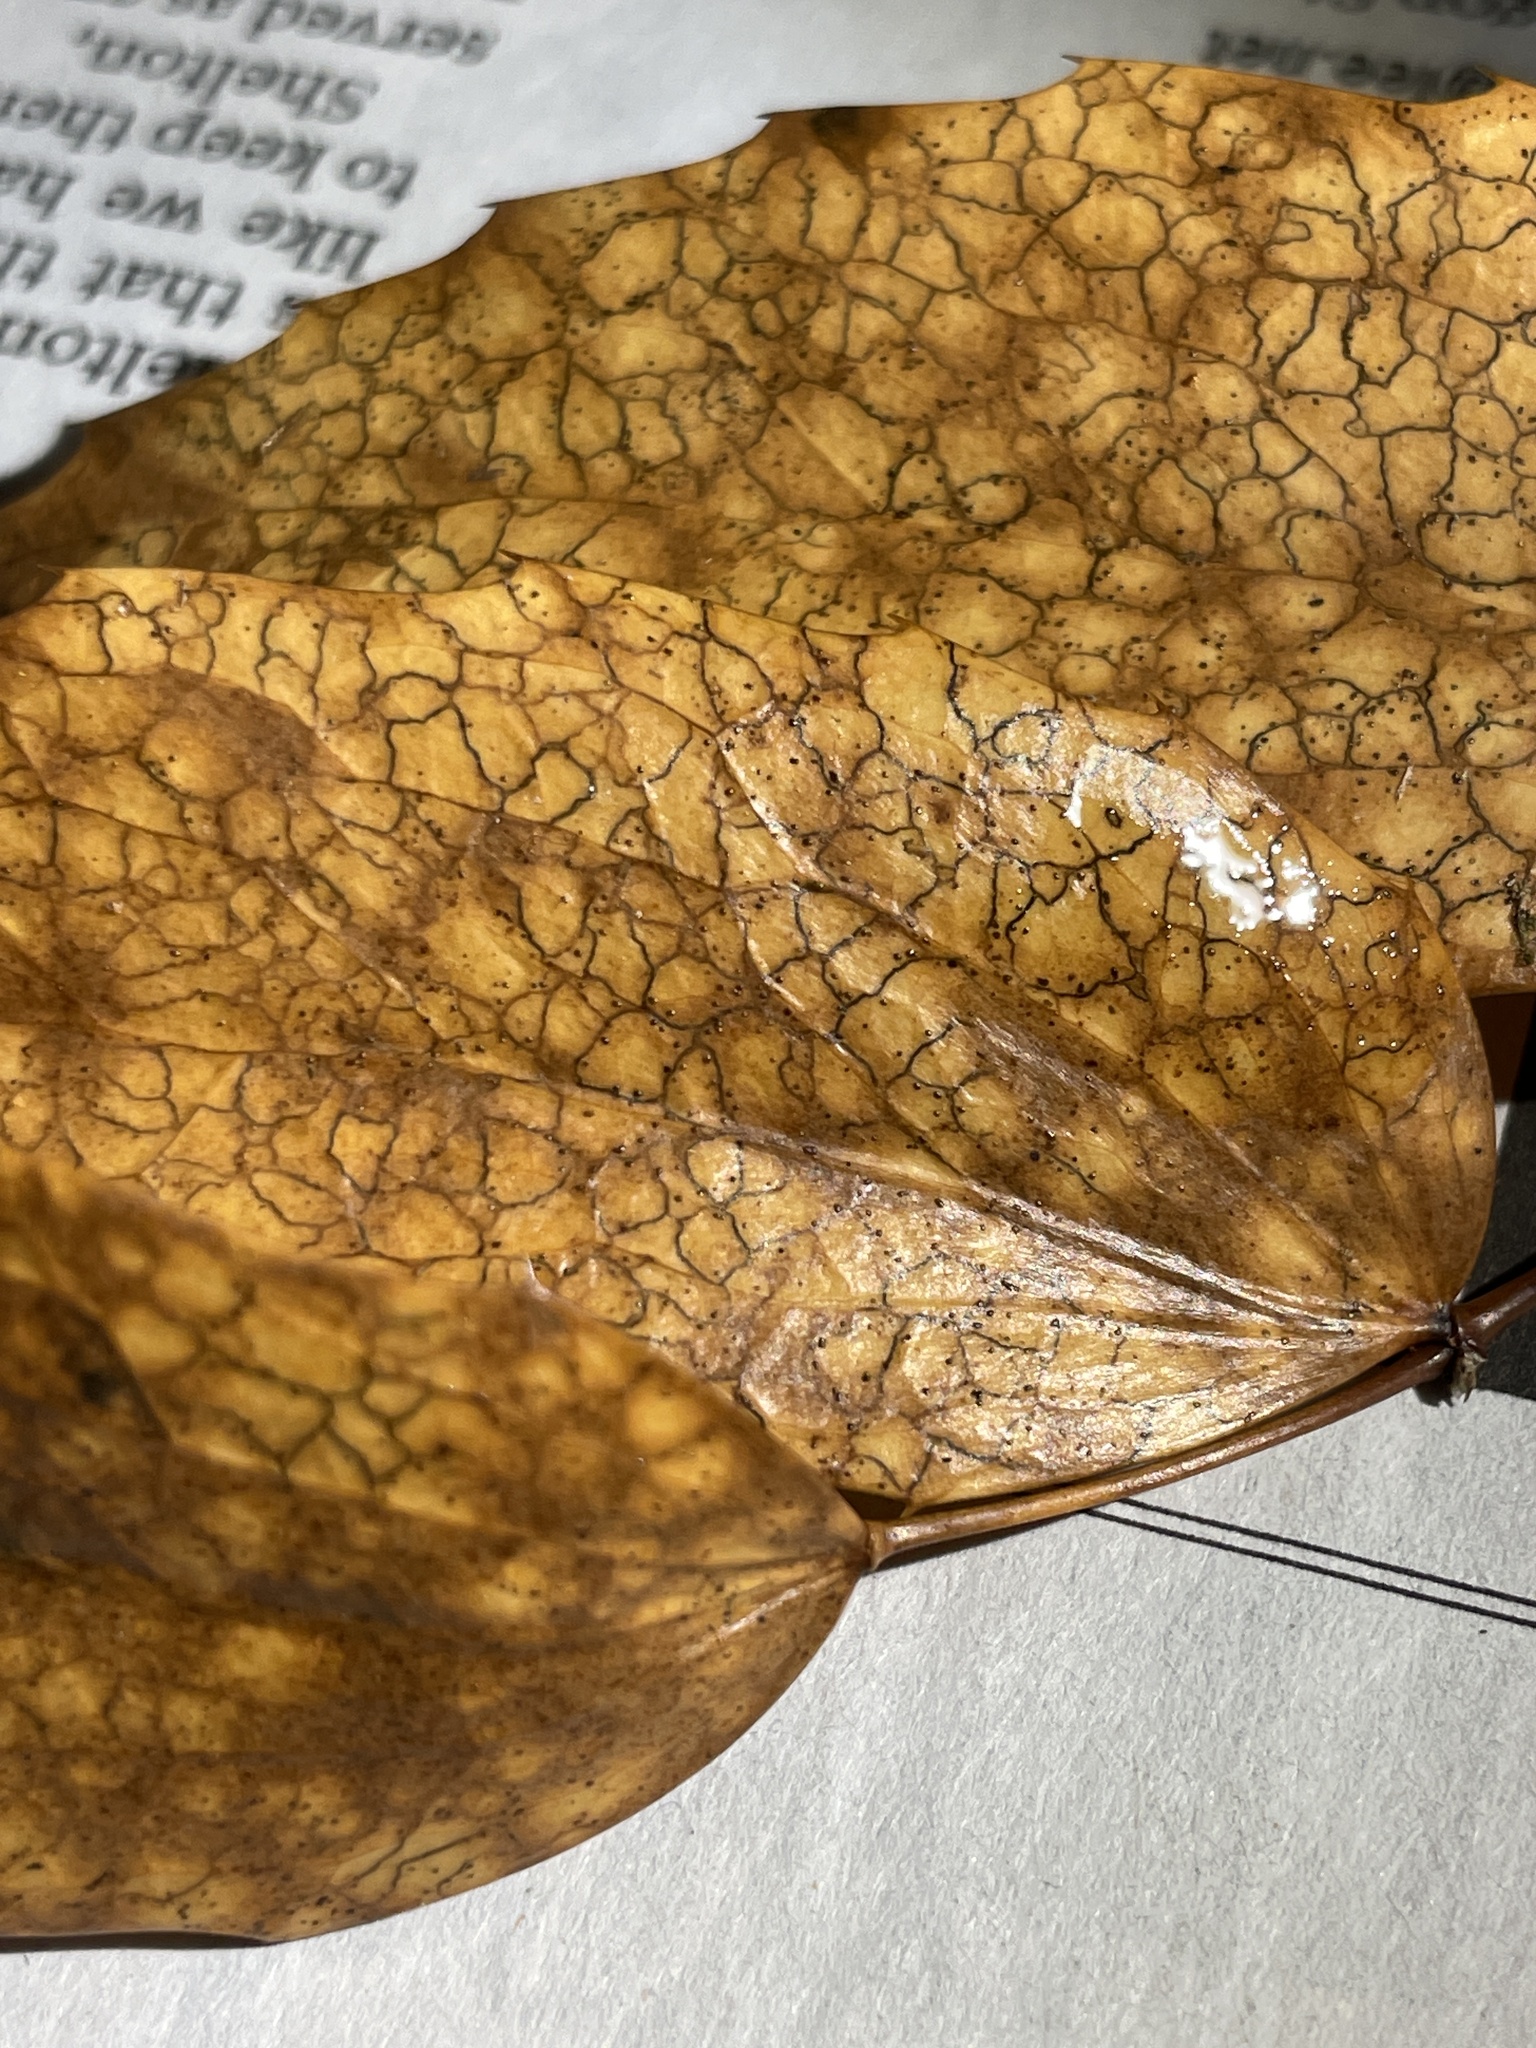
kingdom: Fungi
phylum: Ascomycota
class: Leotiomycetes
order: Rhytismatales
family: Rhytismataceae
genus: Coccomyces
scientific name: Coccomyces dentatus
